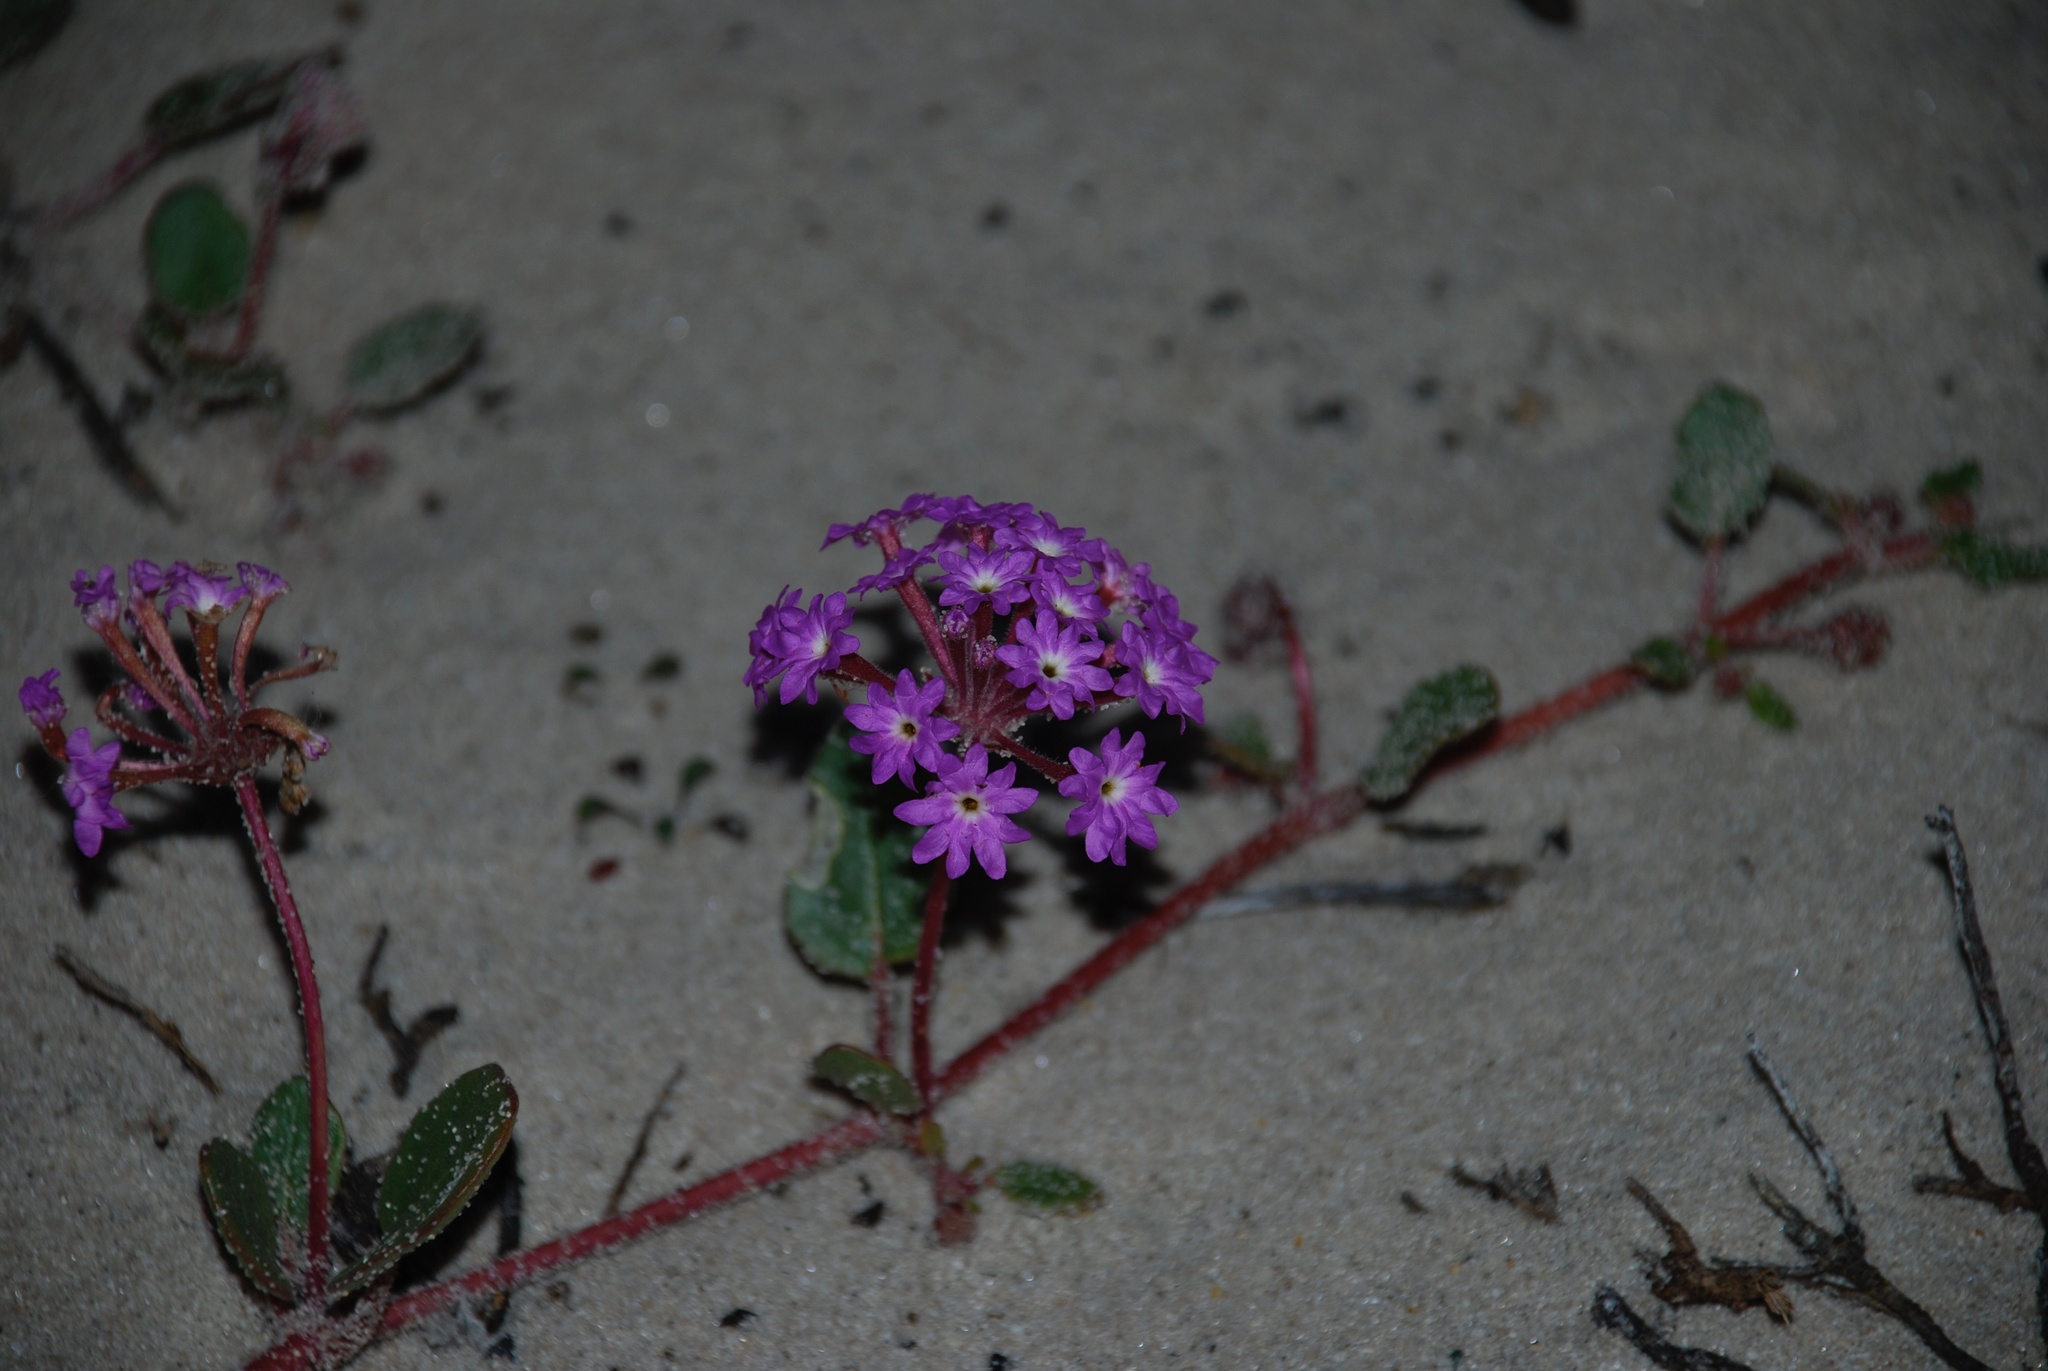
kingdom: Plantae
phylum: Tracheophyta
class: Magnoliopsida
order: Caryophyllales
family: Nyctaginaceae
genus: Abronia
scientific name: Abronia umbellata
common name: Sand-verbena
